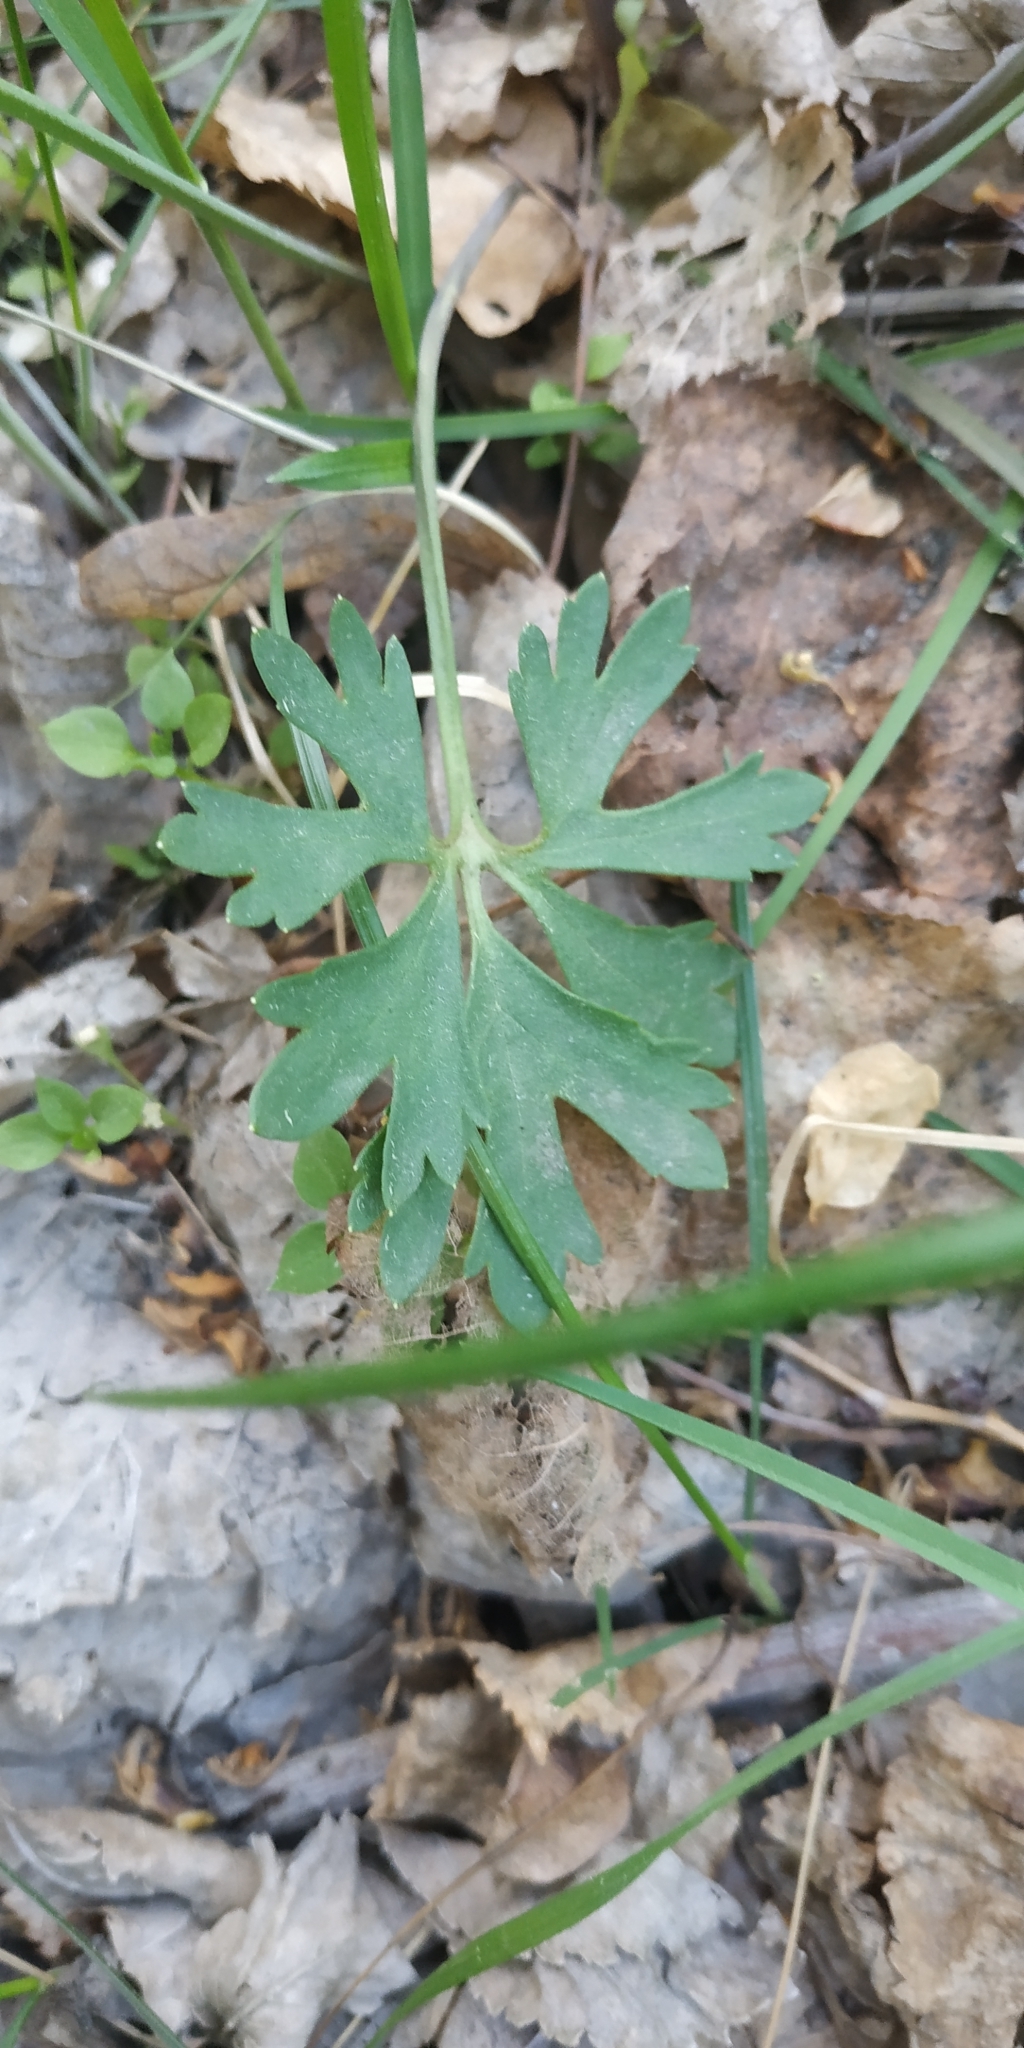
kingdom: Plantae
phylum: Tracheophyta
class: Magnoliopsida
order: Ranunculales
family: Ranunculaceae
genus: Ranunculus
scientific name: Ranunculus auricomus
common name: Goldilocks buttercup
